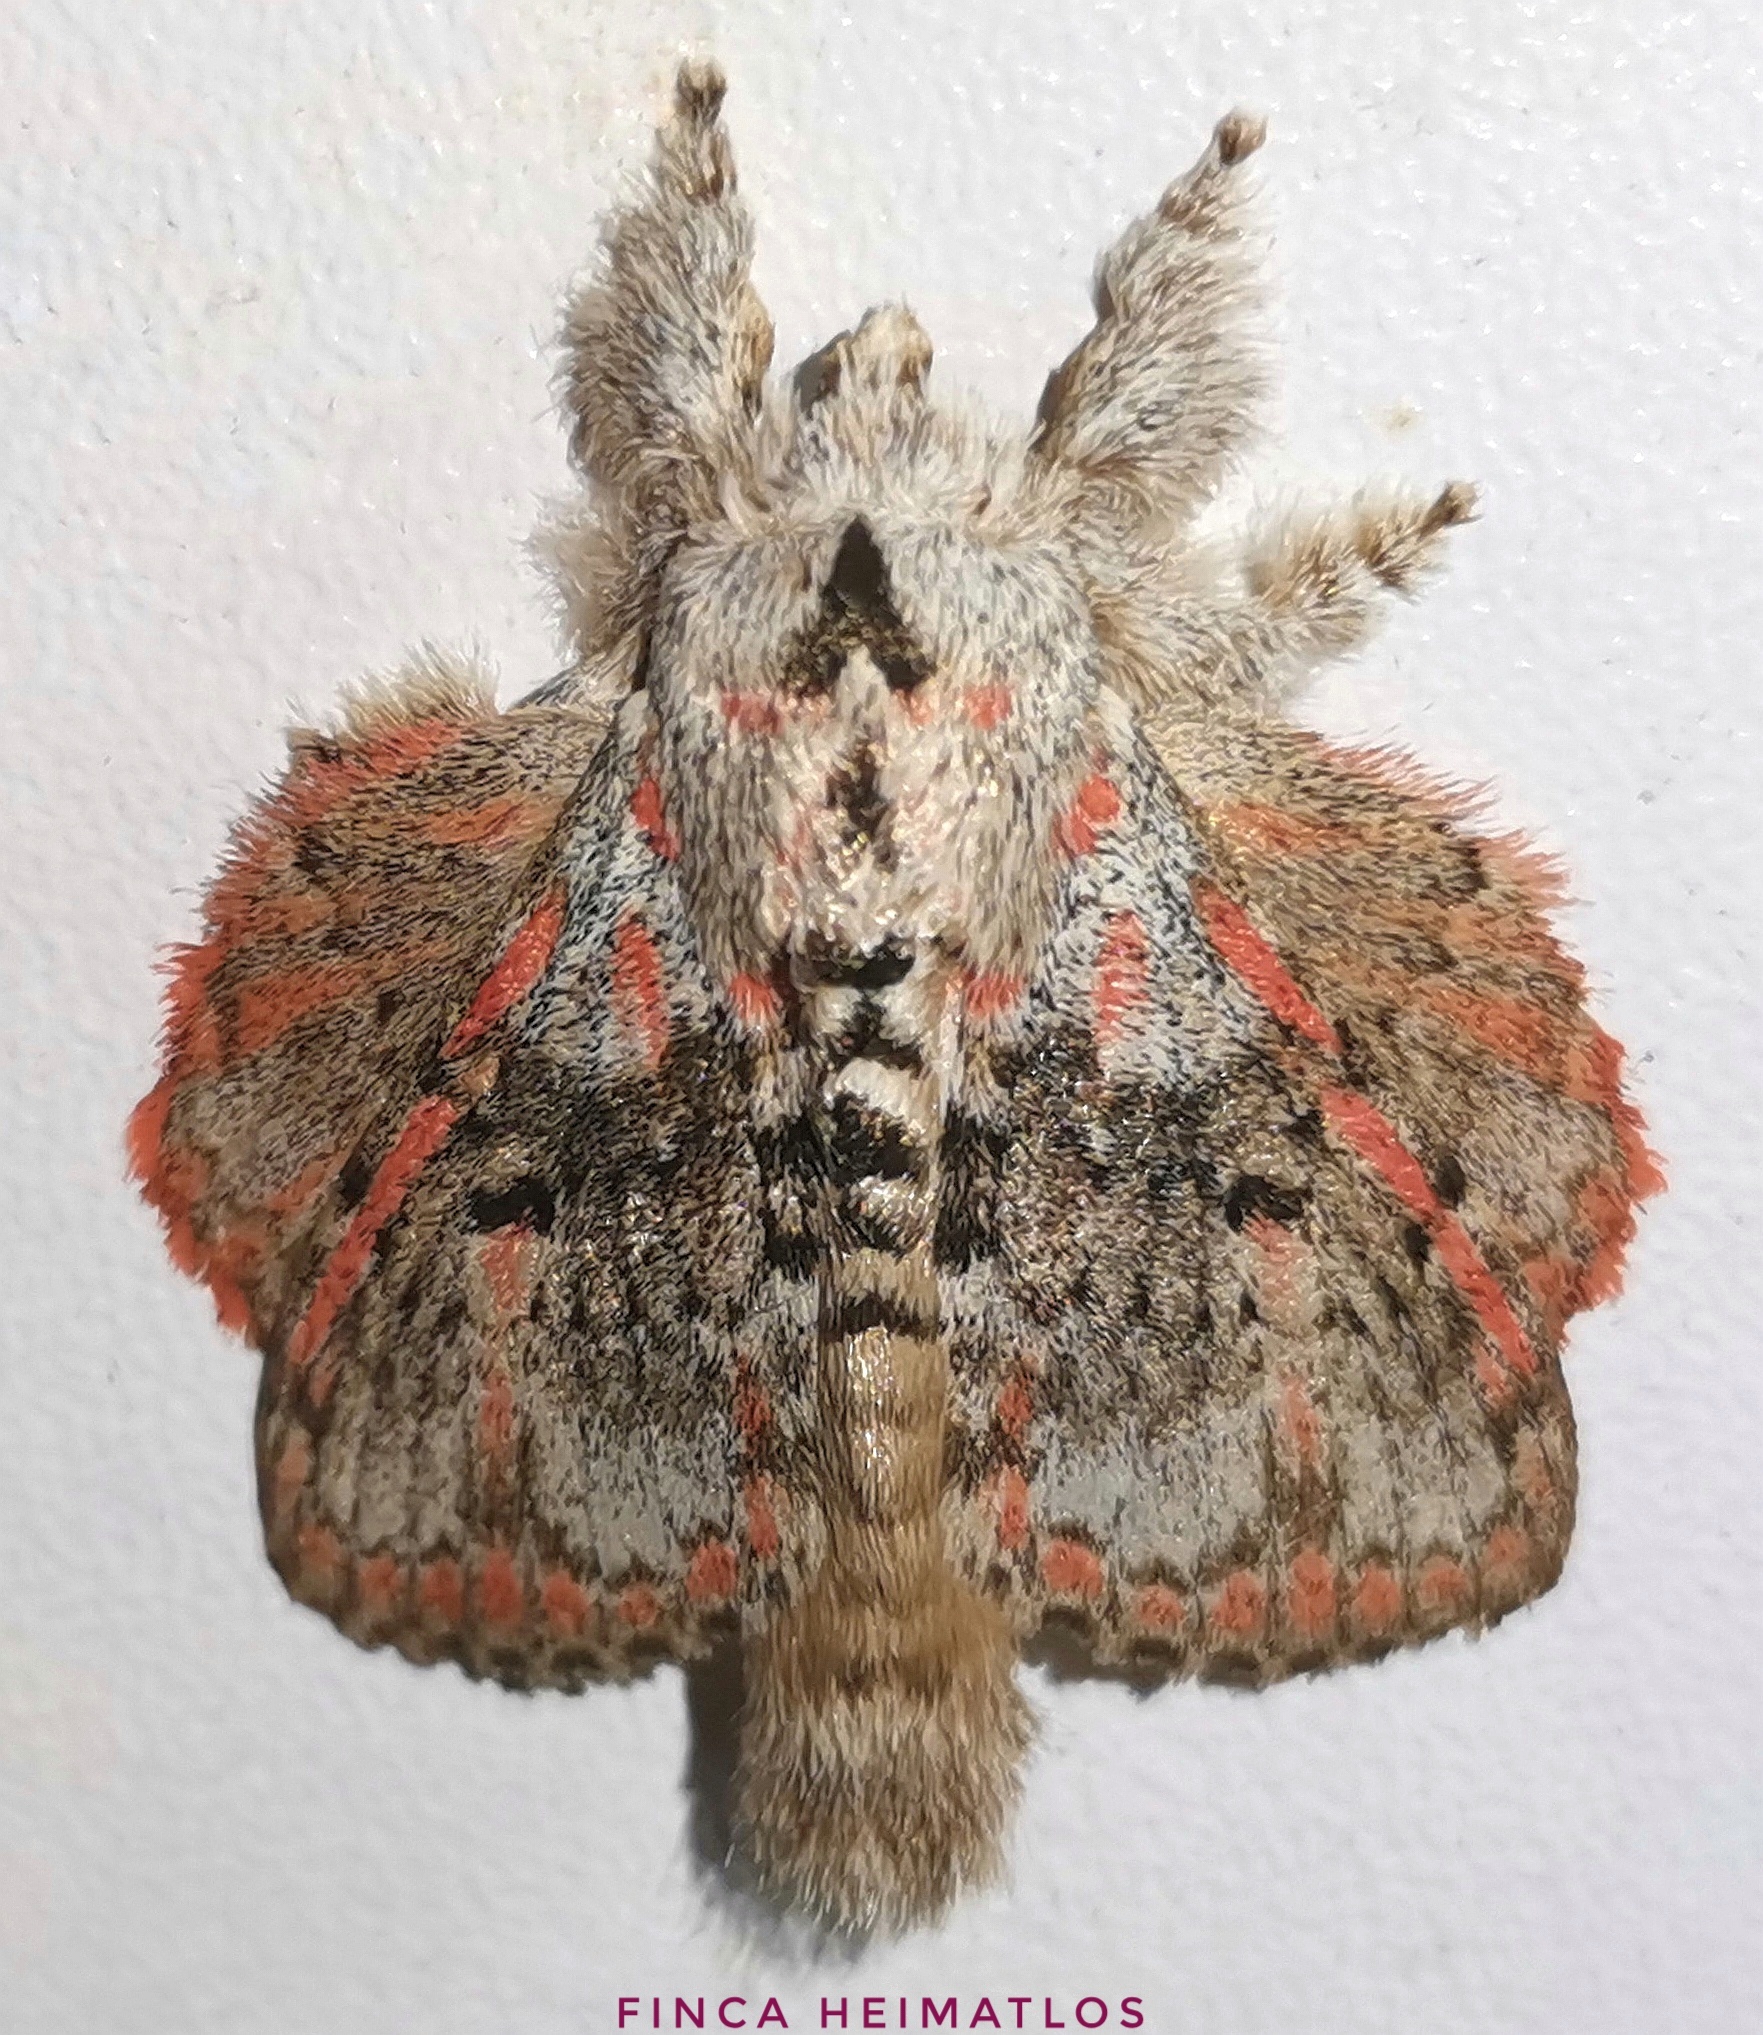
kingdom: Animalia
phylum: Arthropoda
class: Insecta
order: Lepidoptera
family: Lasiocampidae
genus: Euglyphis
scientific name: Euglyphis gibea
